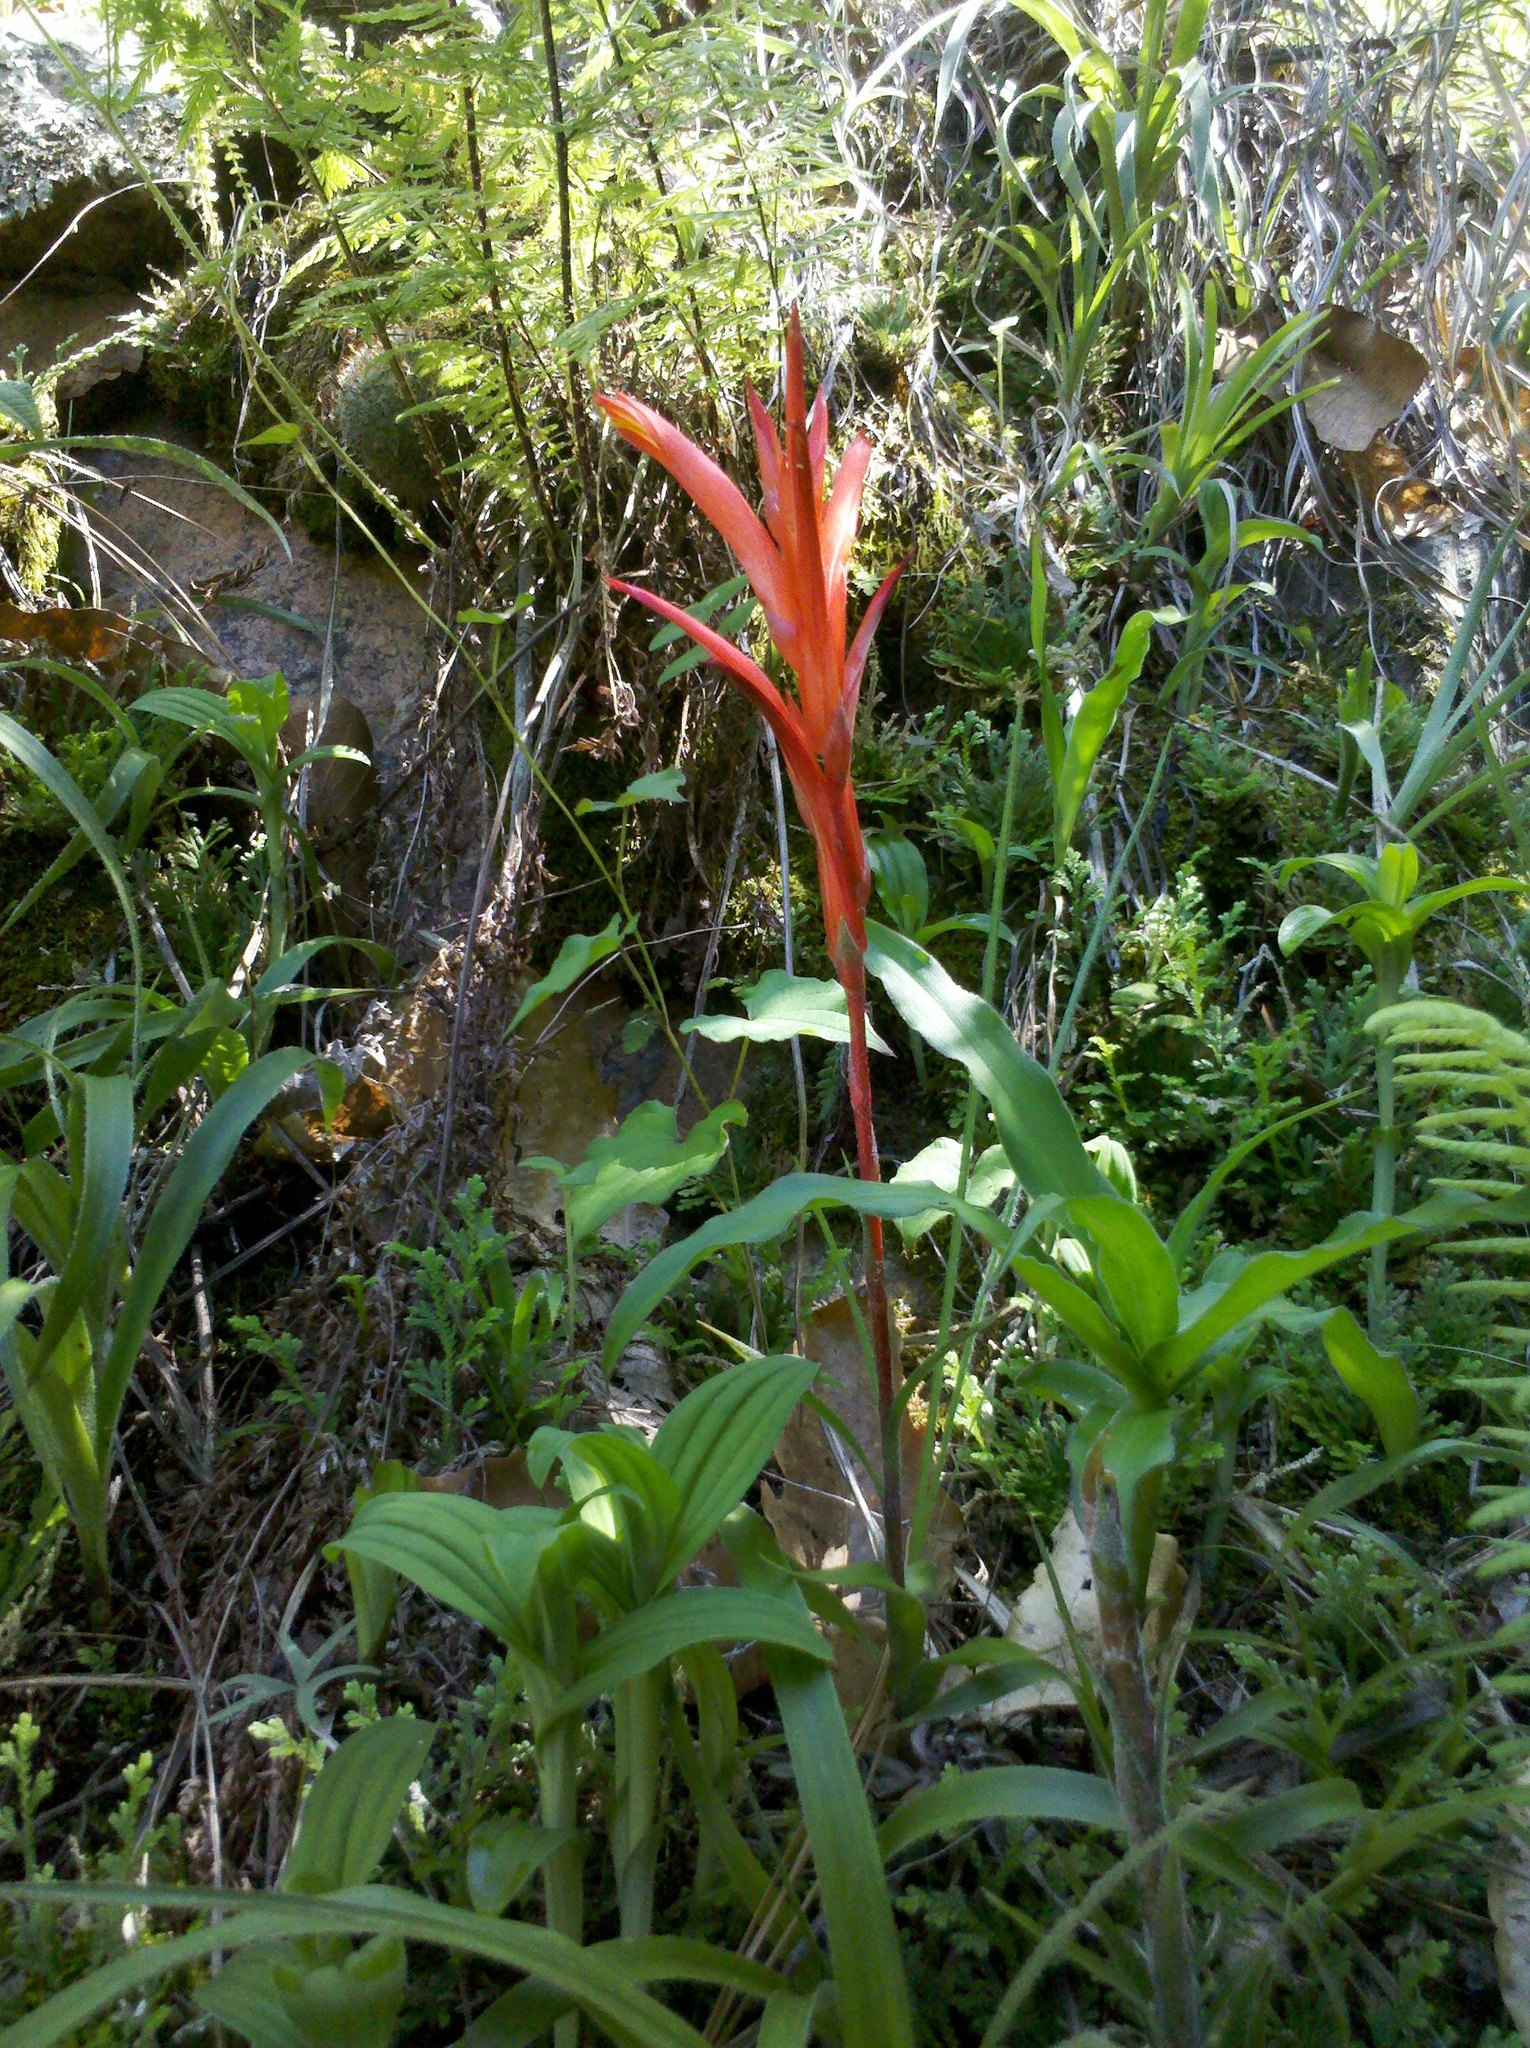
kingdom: Plantae
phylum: Tracheophyta
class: Liliopsida
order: Poales
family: Bromeliaceae
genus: Pitcairnia
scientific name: Pitcairnia karwinskyana
